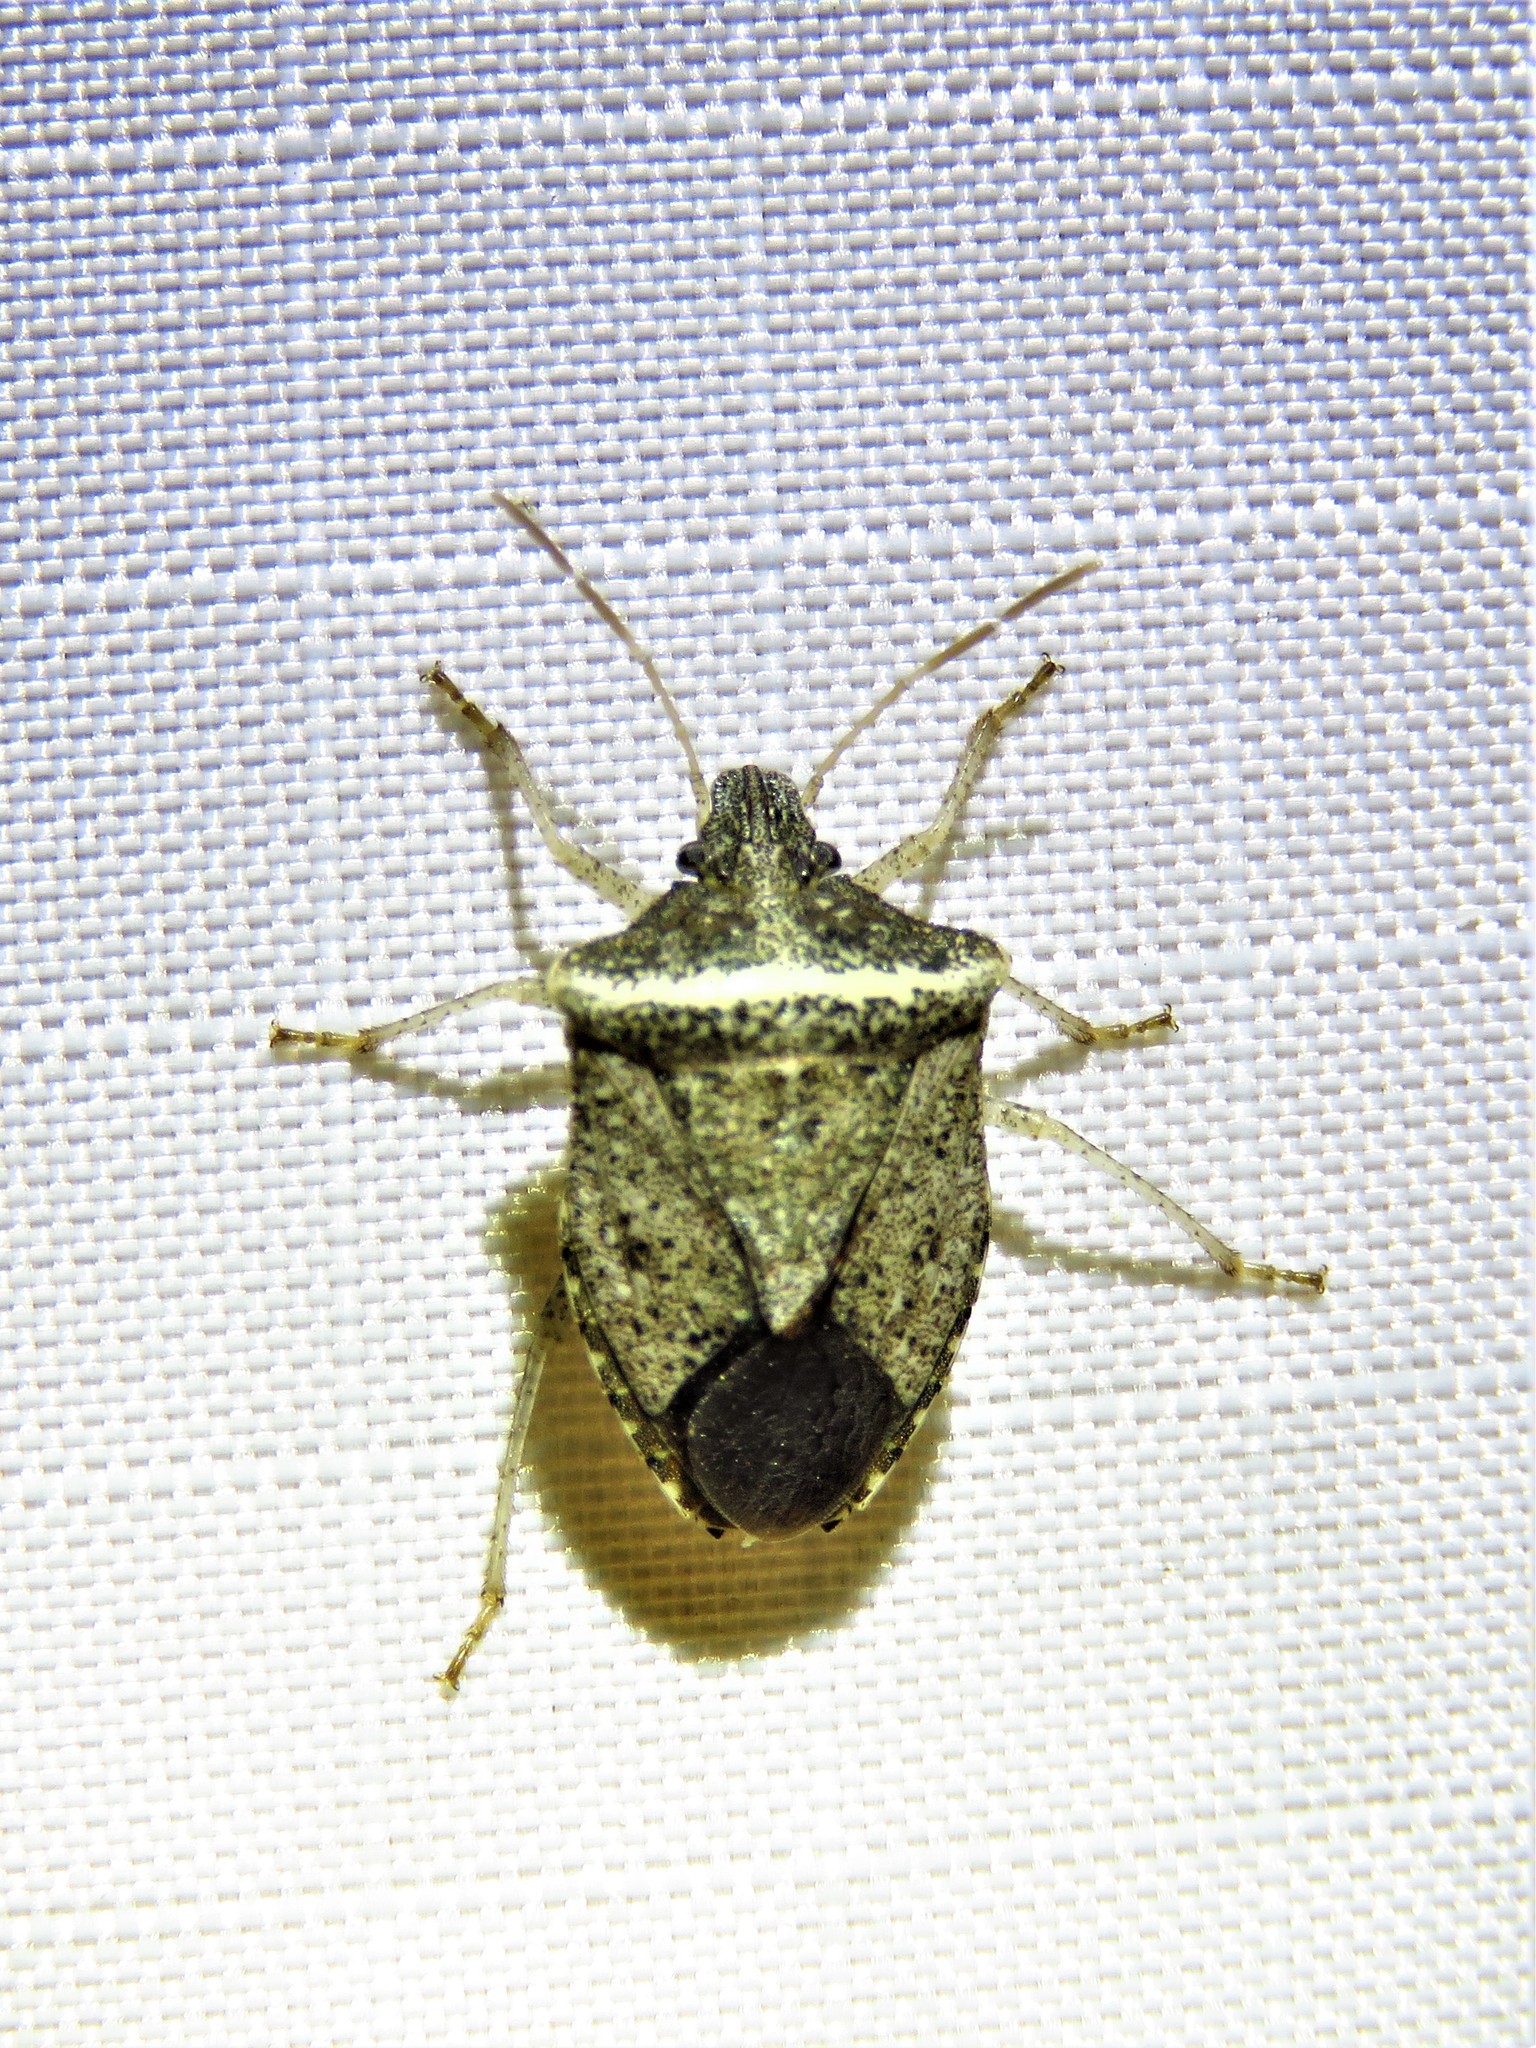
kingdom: Animalia
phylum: Arthropoda
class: Insecta
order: Hemiptera
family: Pentatomidae
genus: Euschistus
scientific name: Euschistus obscurus
